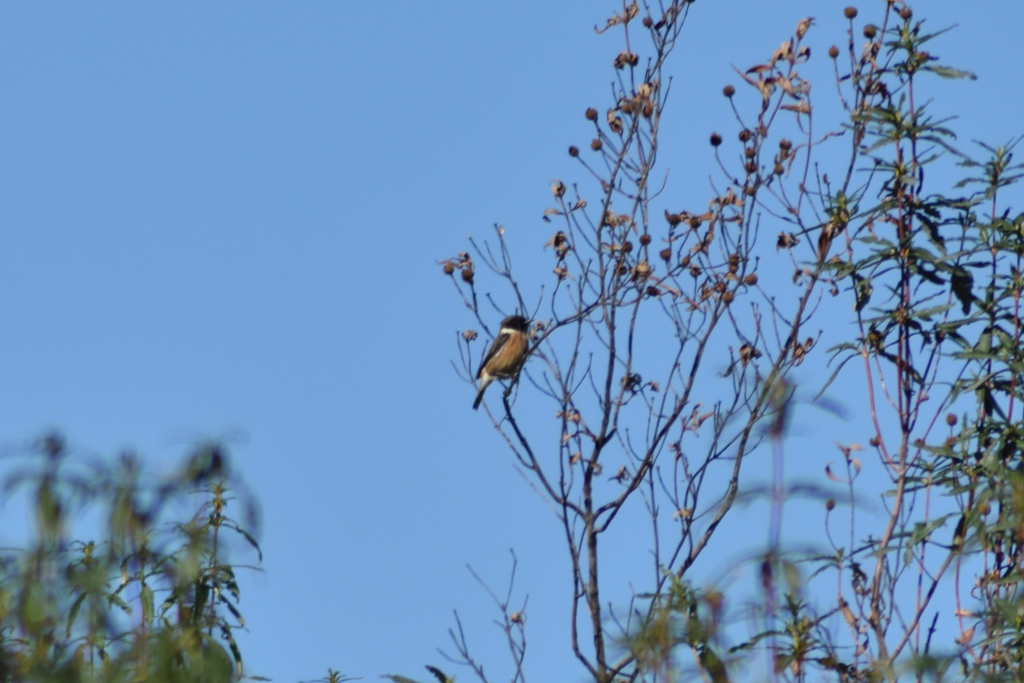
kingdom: Animalia
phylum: Chordata
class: Aves
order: Passeriformes
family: Muscicapidae
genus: Saxicola
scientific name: Saxicola rubicola
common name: European stonechat
